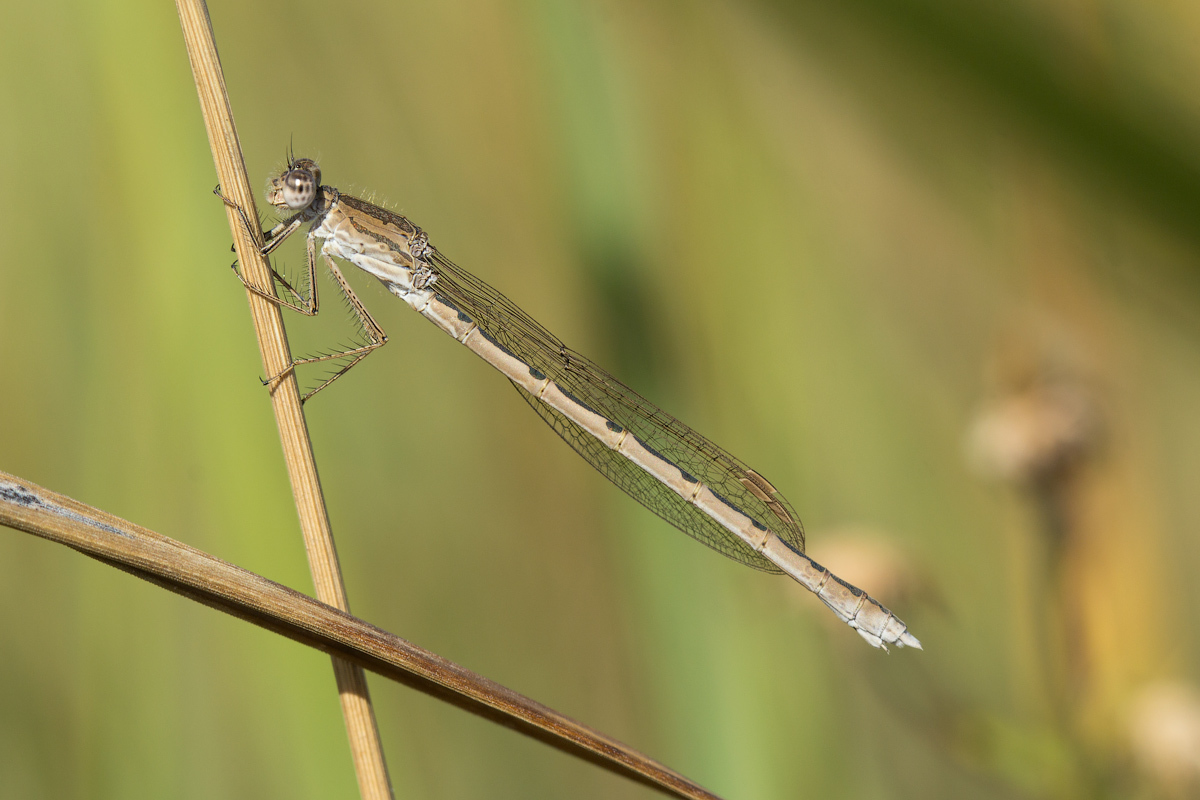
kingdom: Animalia
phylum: Arthropoda
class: Insecta
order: Odonata
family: Lestidae
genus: Sympecma
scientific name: Sympecma paedisca
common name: Siberian winter damsel
